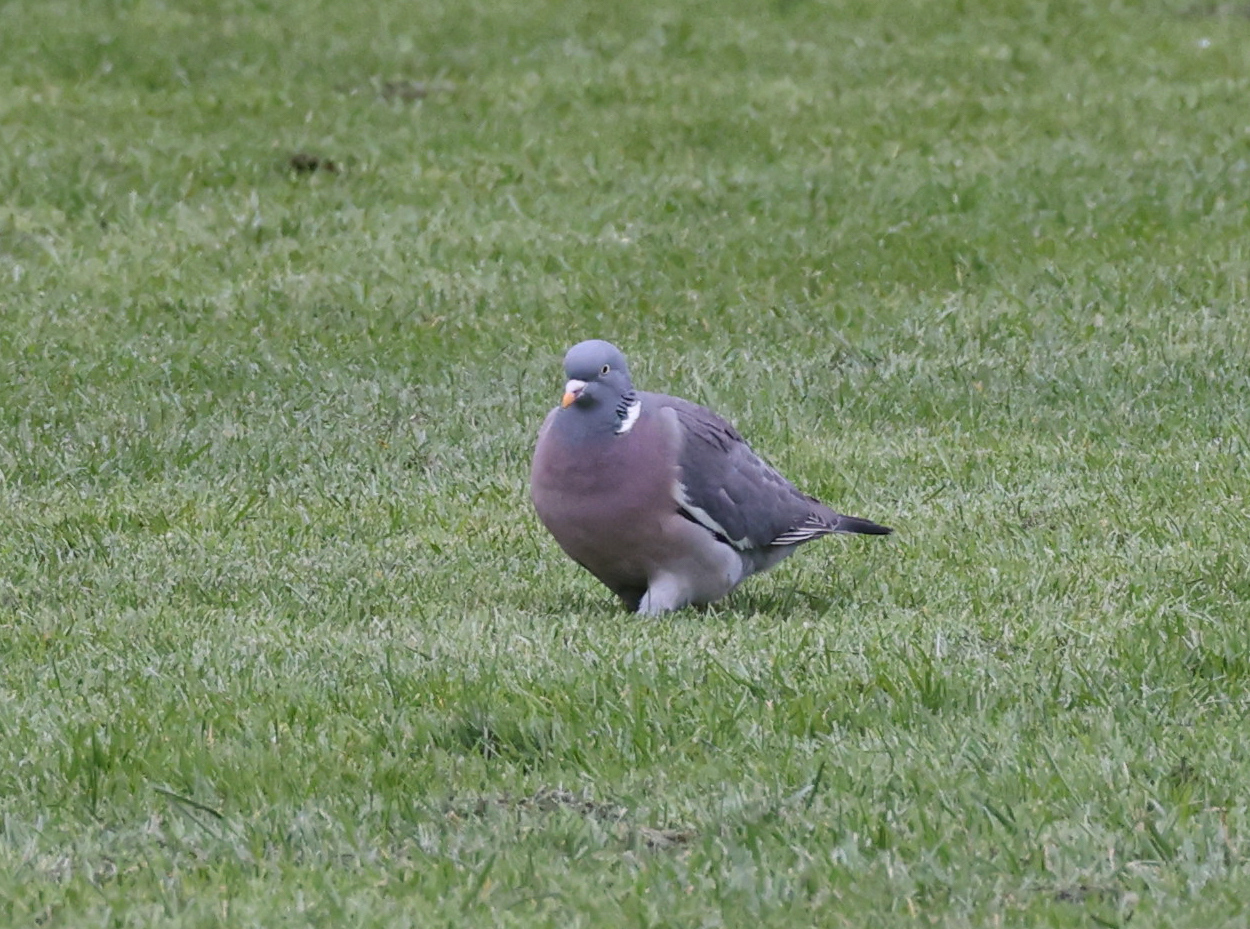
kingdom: Animalia
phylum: Chordata
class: Aves
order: Columbiformes
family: Columbidae
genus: Columba
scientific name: Columba palumbus
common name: Common wood pigeon
